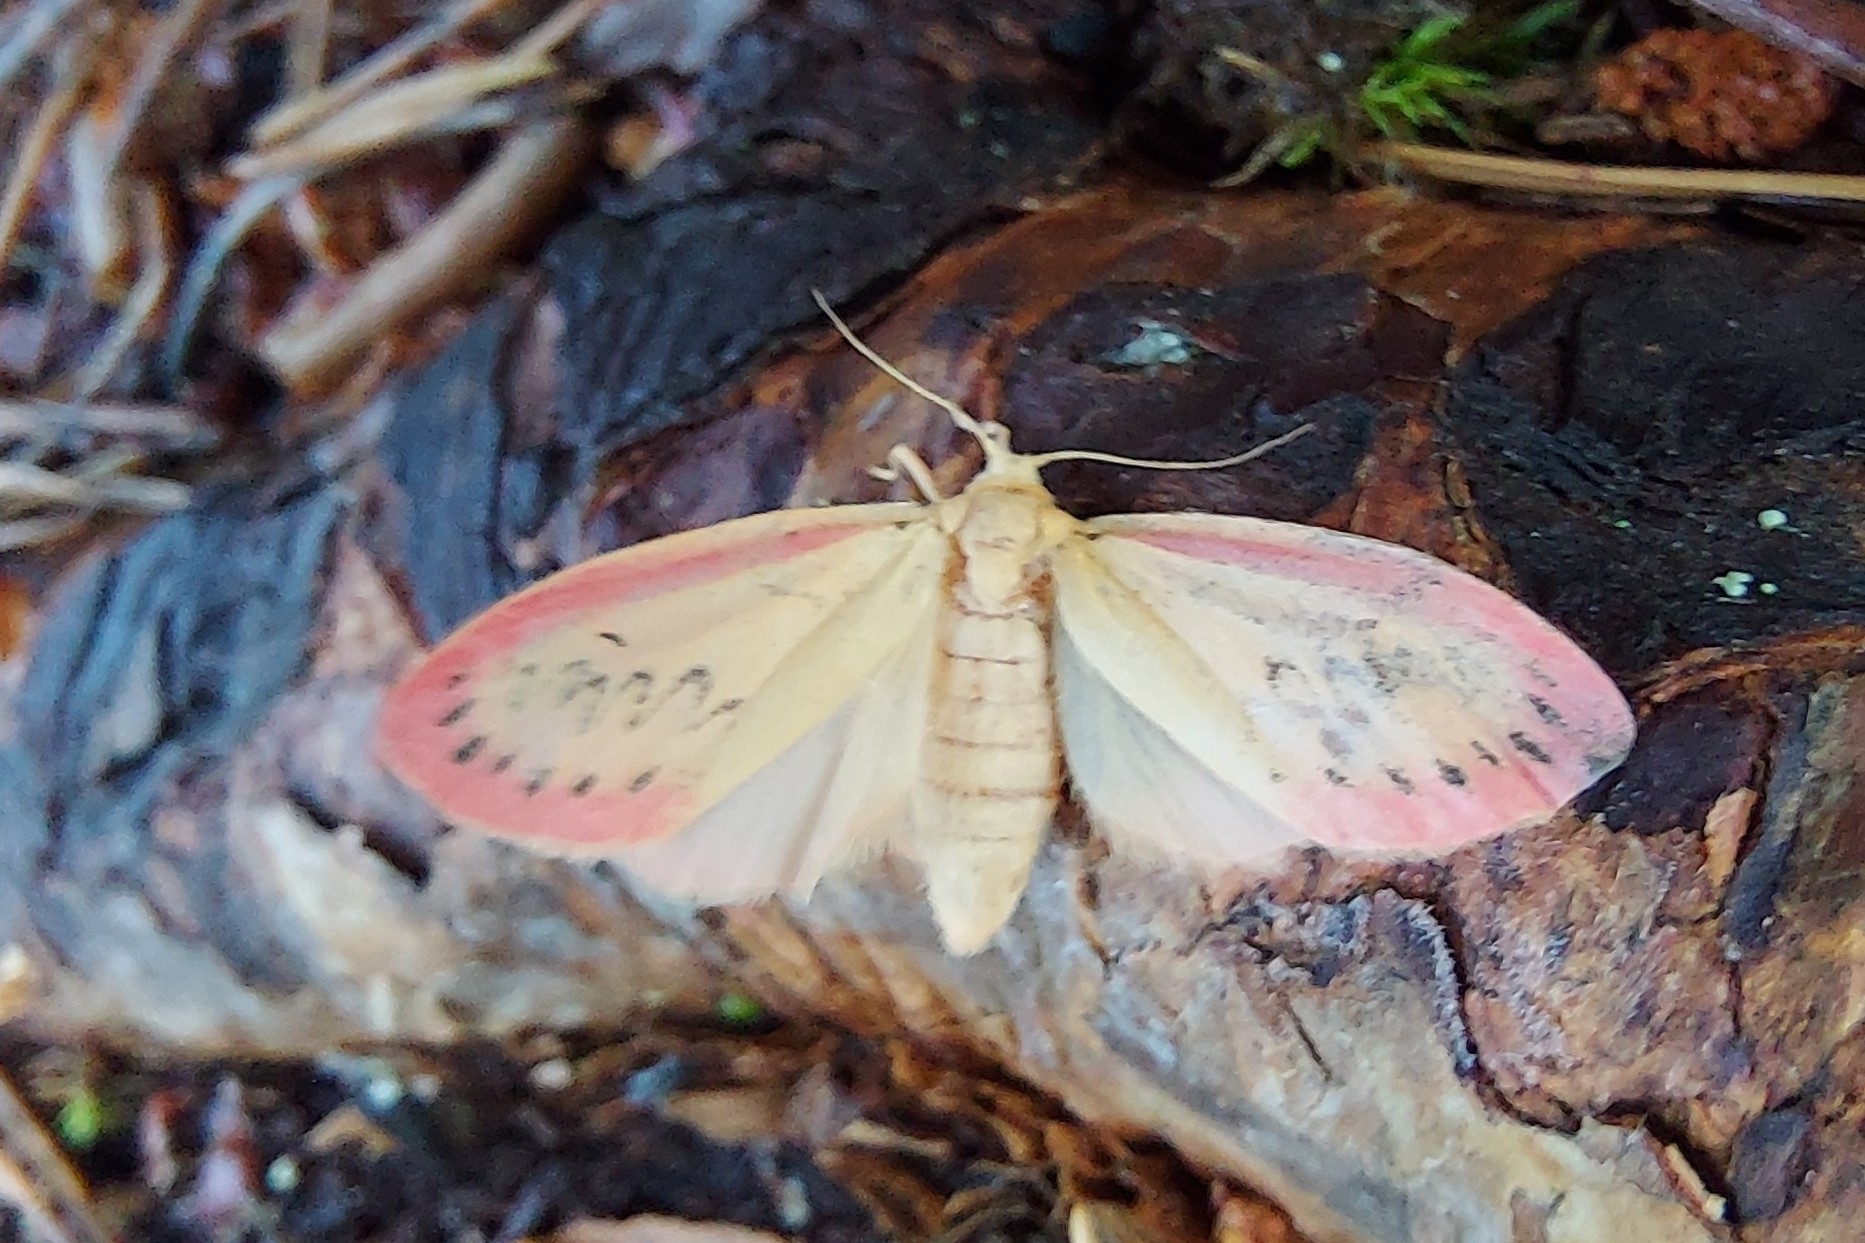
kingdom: Animalia
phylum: Arthropoda
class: Insecta
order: Lepidoptera
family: Erebidae
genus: Miltochrista
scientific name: Miltochrista miniata
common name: Rosy footman
